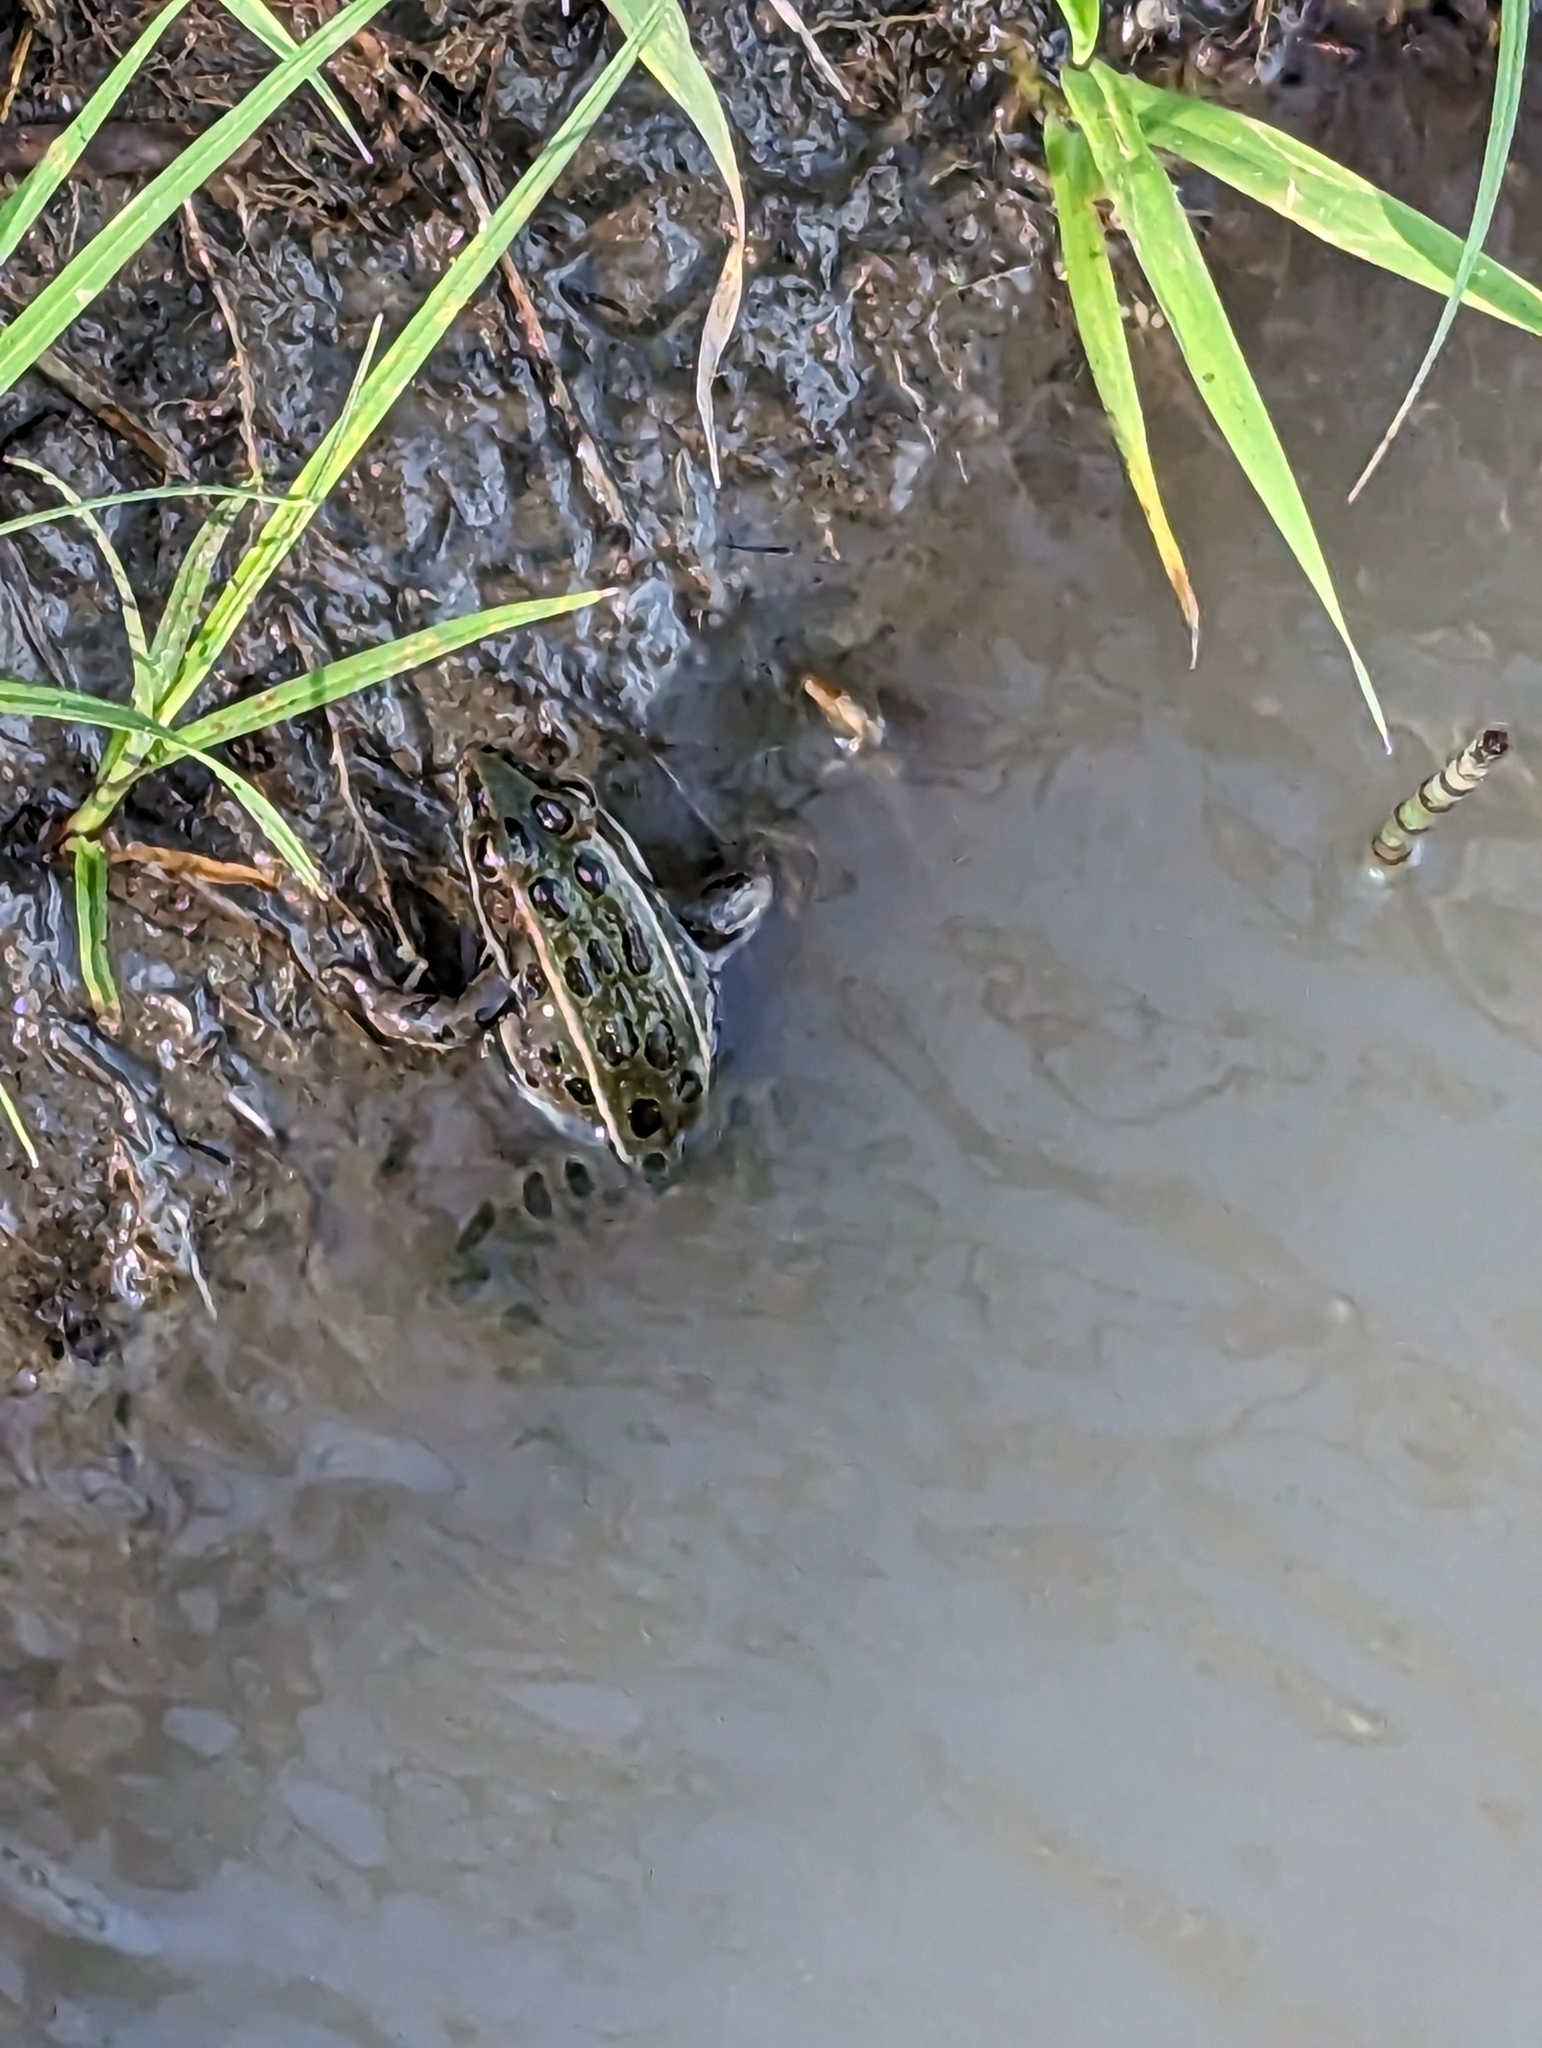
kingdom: Animalia
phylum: Chordata
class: Amphibia
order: Anura
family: Ranidae
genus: Lithobates
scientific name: Lithobates pipiens
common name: Northern leopard frog
